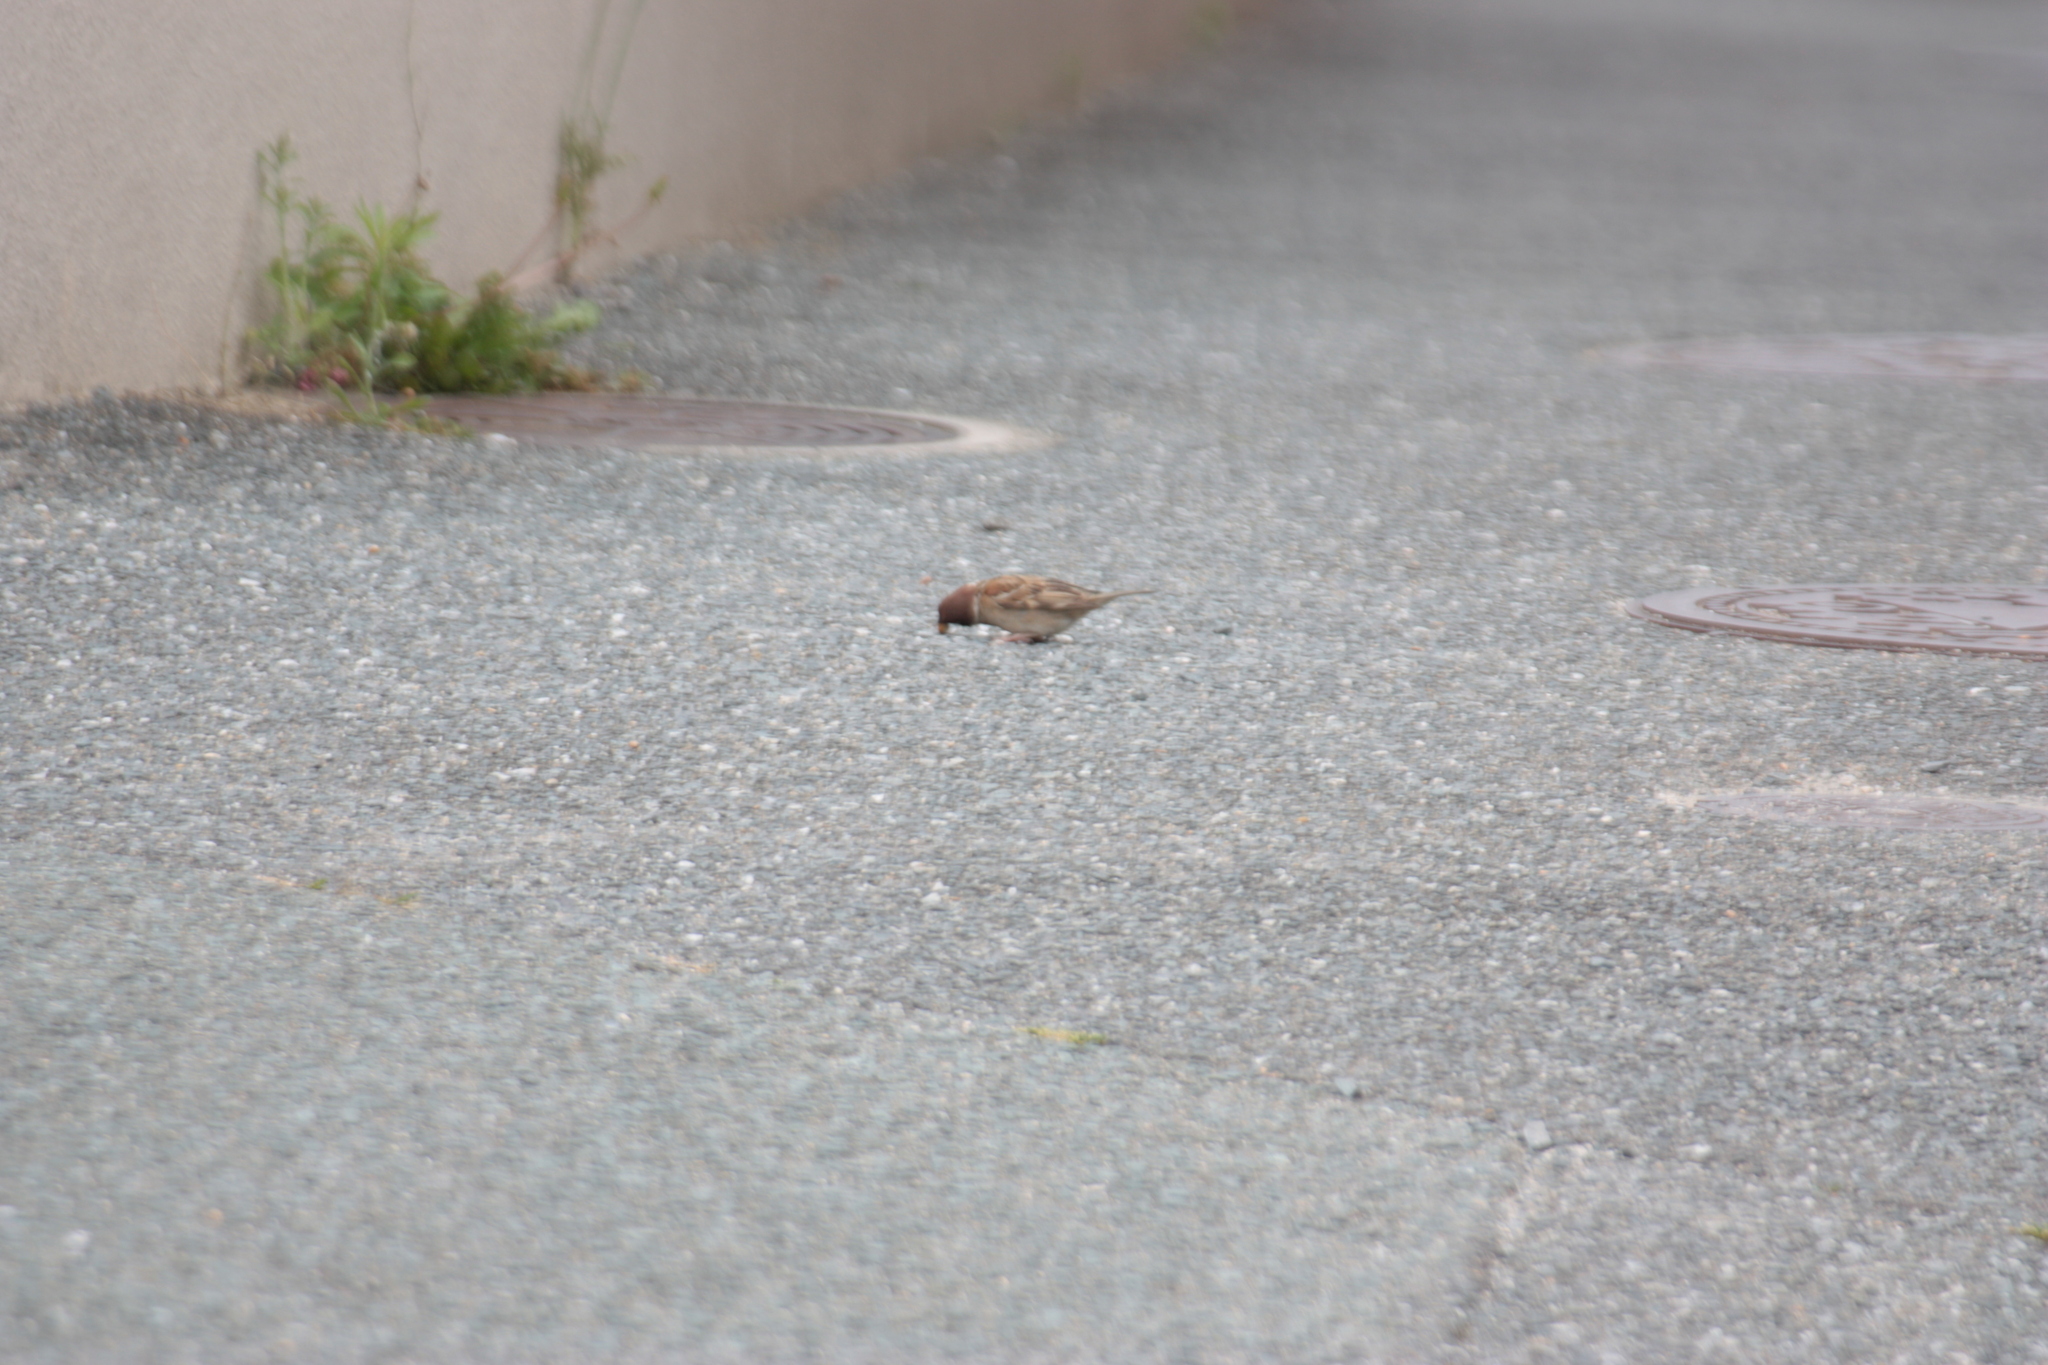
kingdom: Animalia
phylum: Chordata
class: Aves
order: Passeriformes
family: Passeridae
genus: Passer
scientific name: Passer montanus
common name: Eurasian tree sparrow
